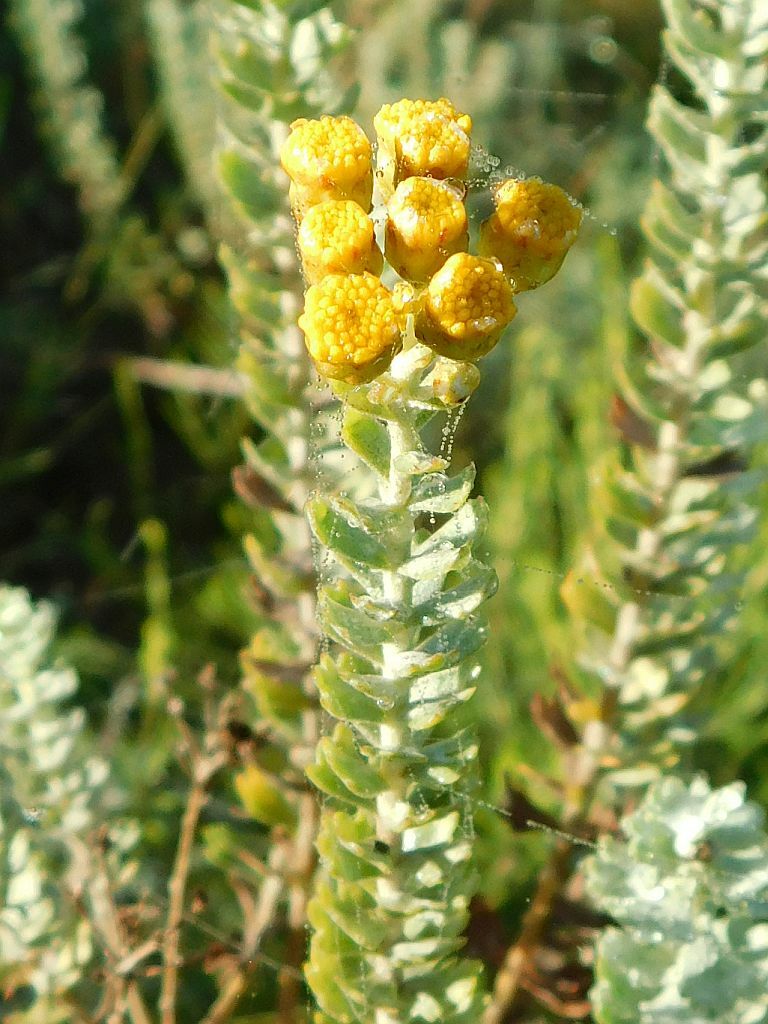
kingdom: Plantae
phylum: Tracheophyta
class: Magnoliopsida
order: Asterales
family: Asteraceae
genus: Athanasia
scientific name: Athanasia trifurcata
